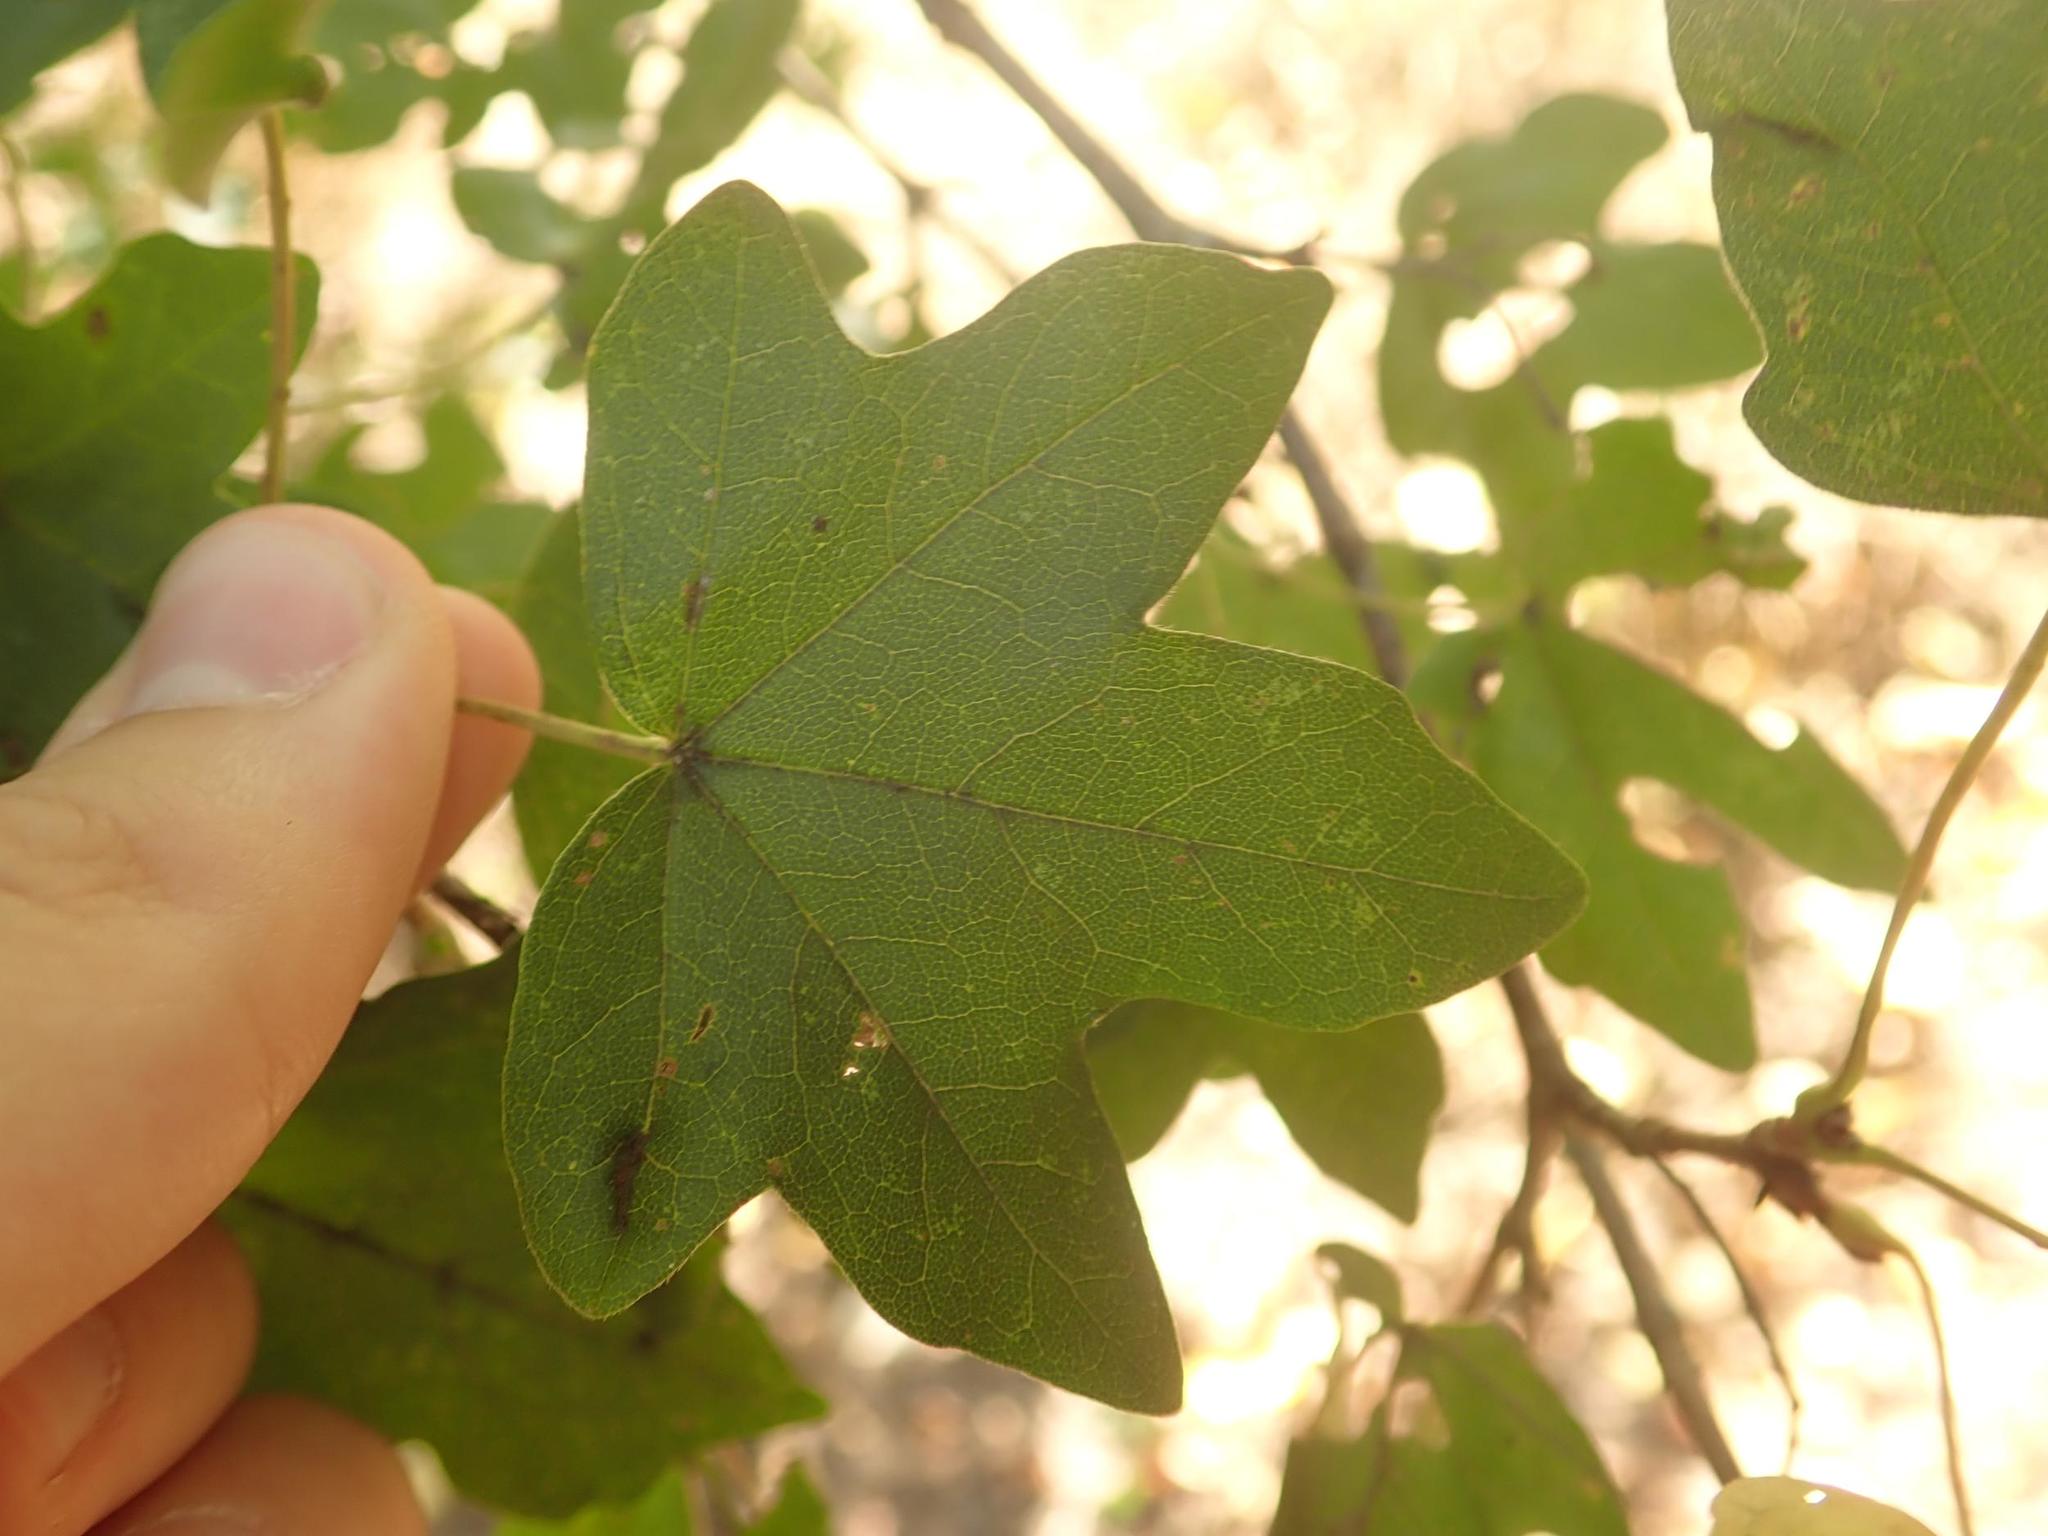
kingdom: Plantae
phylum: Tracheophyta
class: Magnoliopsida
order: Sapindales
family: Sapindaceae
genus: Acer
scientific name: Acer campestre
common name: Field maple
